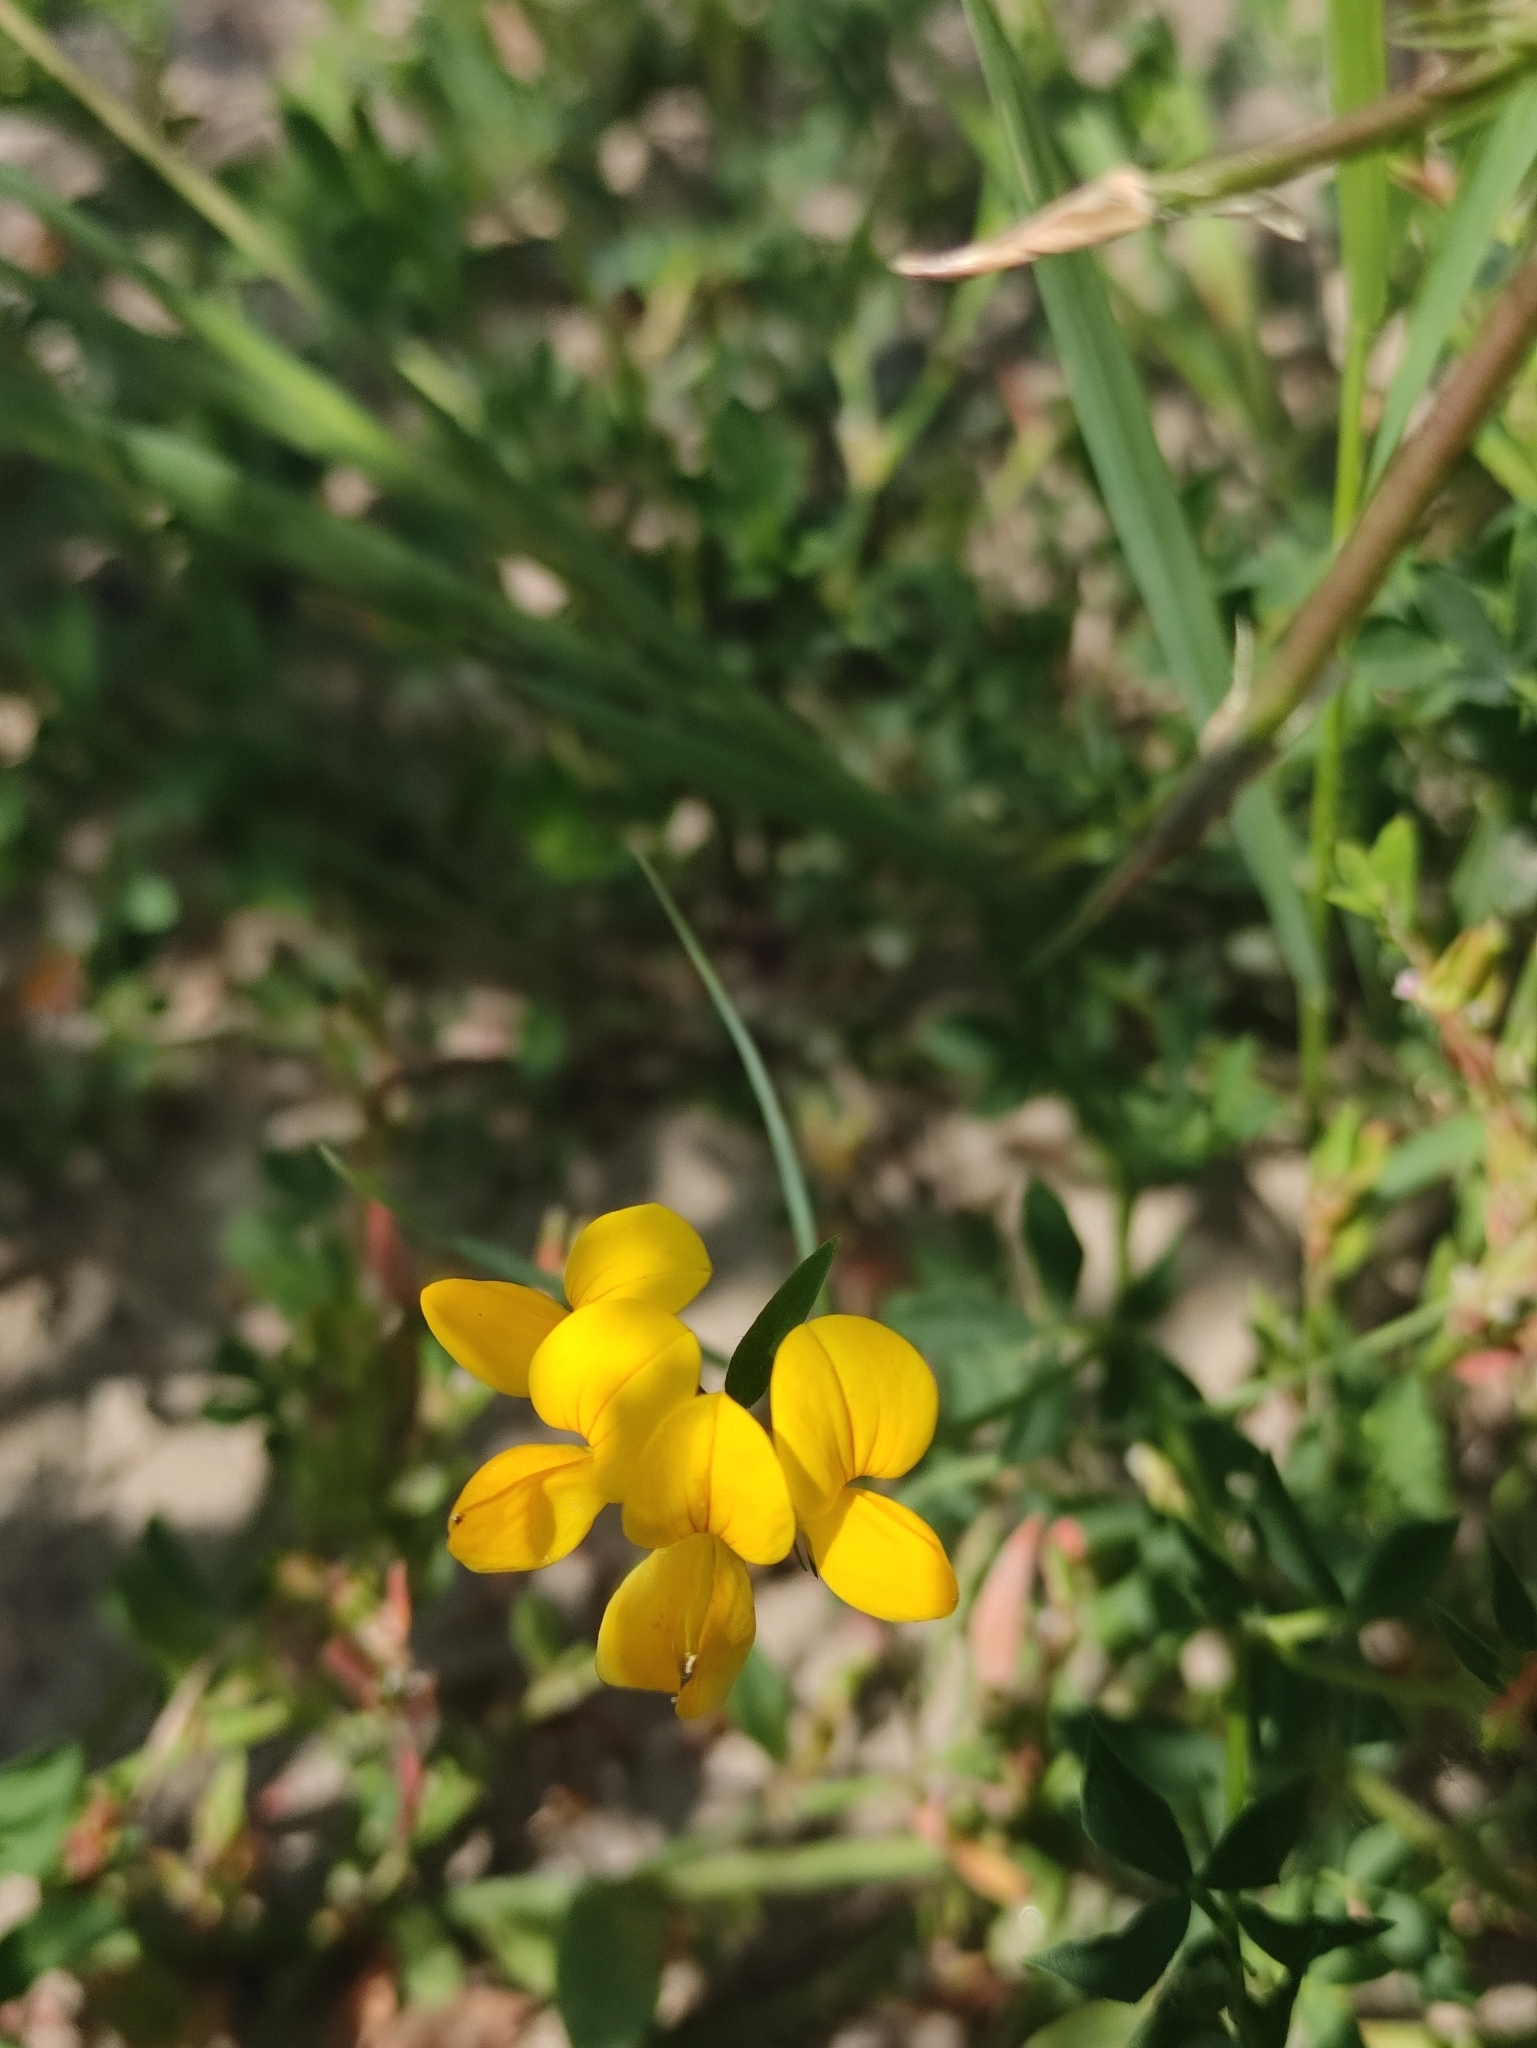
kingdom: Plantae
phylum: Tracheophyta
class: Magnoliopsida
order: Fabales
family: Fabaceae
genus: Lotus
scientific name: Lotus corniculatus
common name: Common bird's-foot-trefoil
